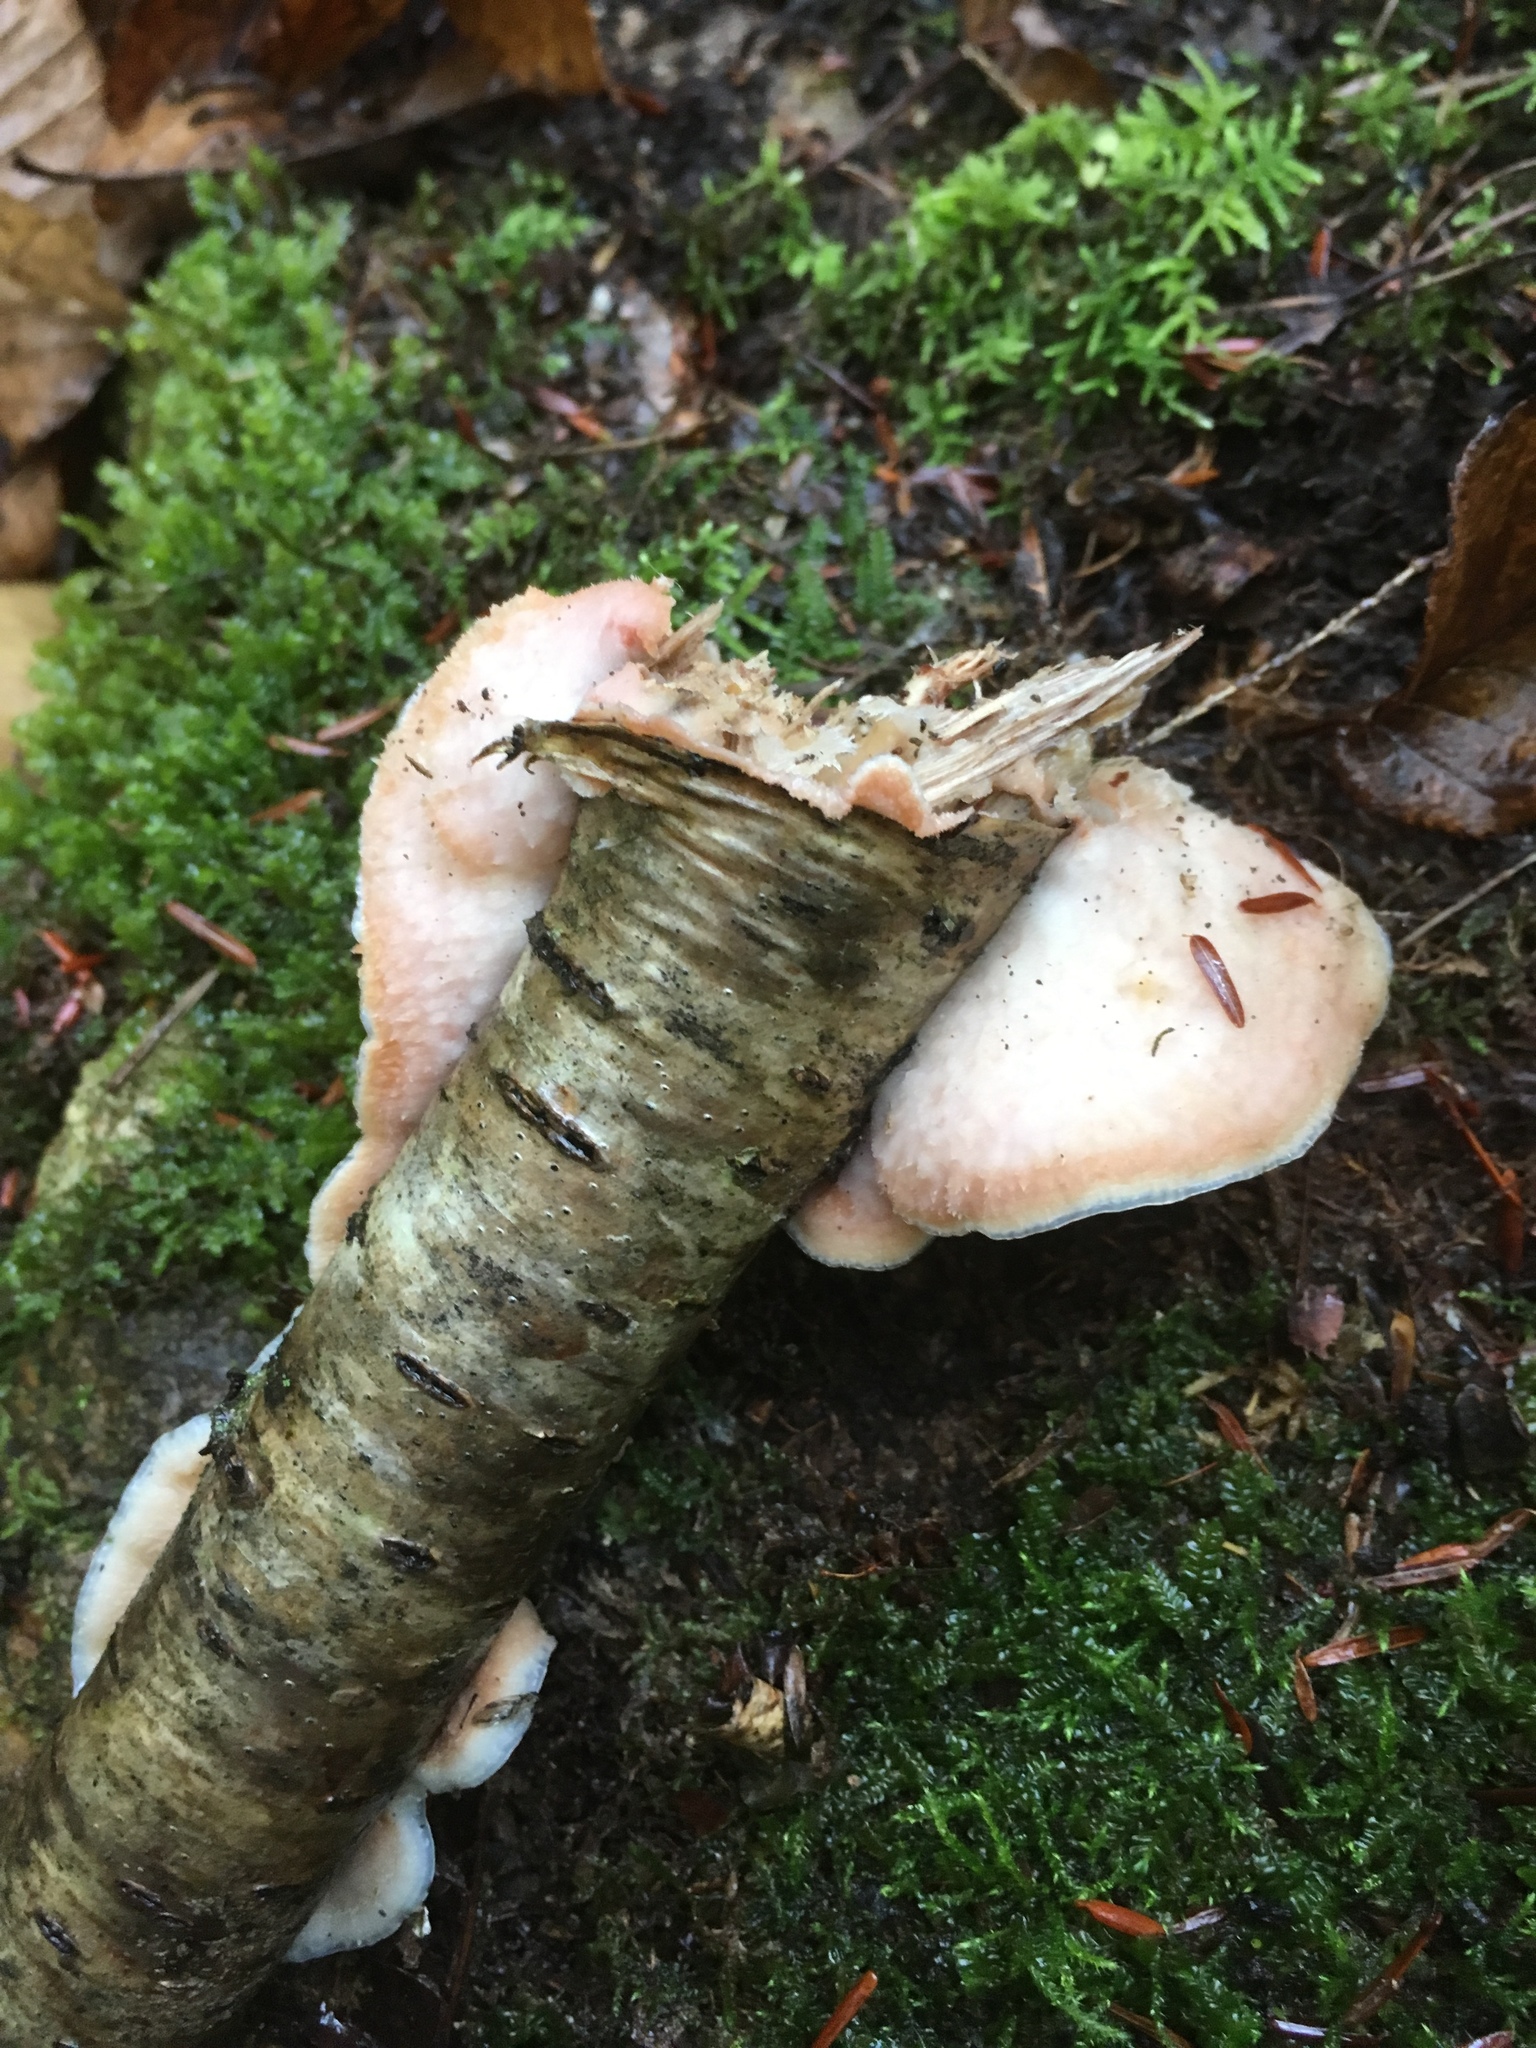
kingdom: Fungi
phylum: Basidiomycota
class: Agaricomycetes
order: Polyporales
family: Meruliaceae
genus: Phlebia
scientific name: Phlebia tremellosa
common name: Jelly rot
